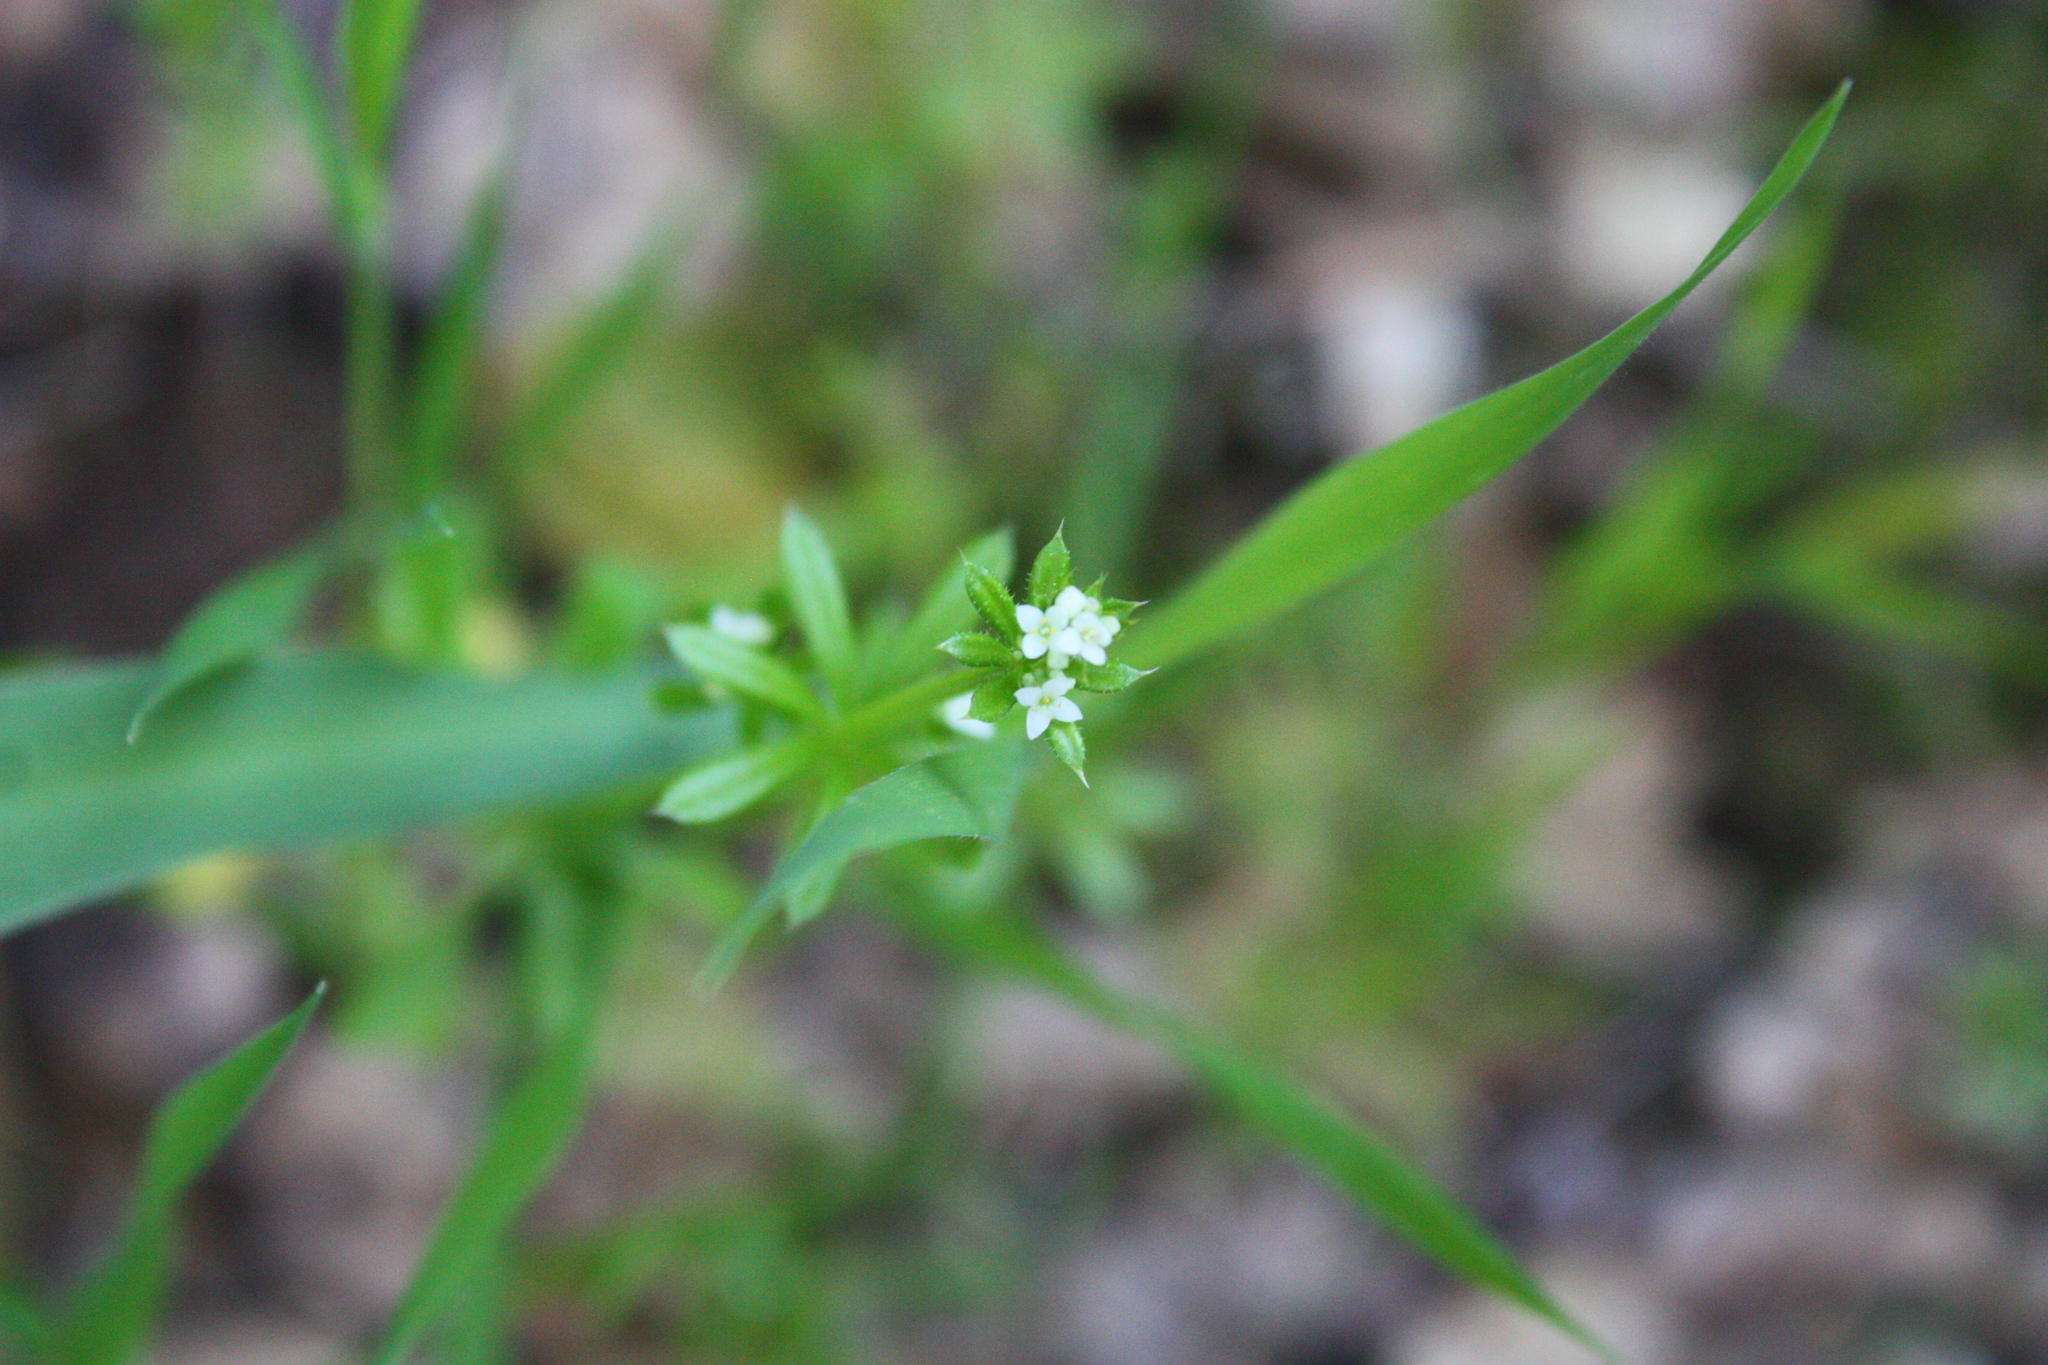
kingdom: Plantae
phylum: Tracheophyta
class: Magnoliopsida
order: Gentianales
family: Rubiaceae
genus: Galium
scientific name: Galium aparine
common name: Cleavers
